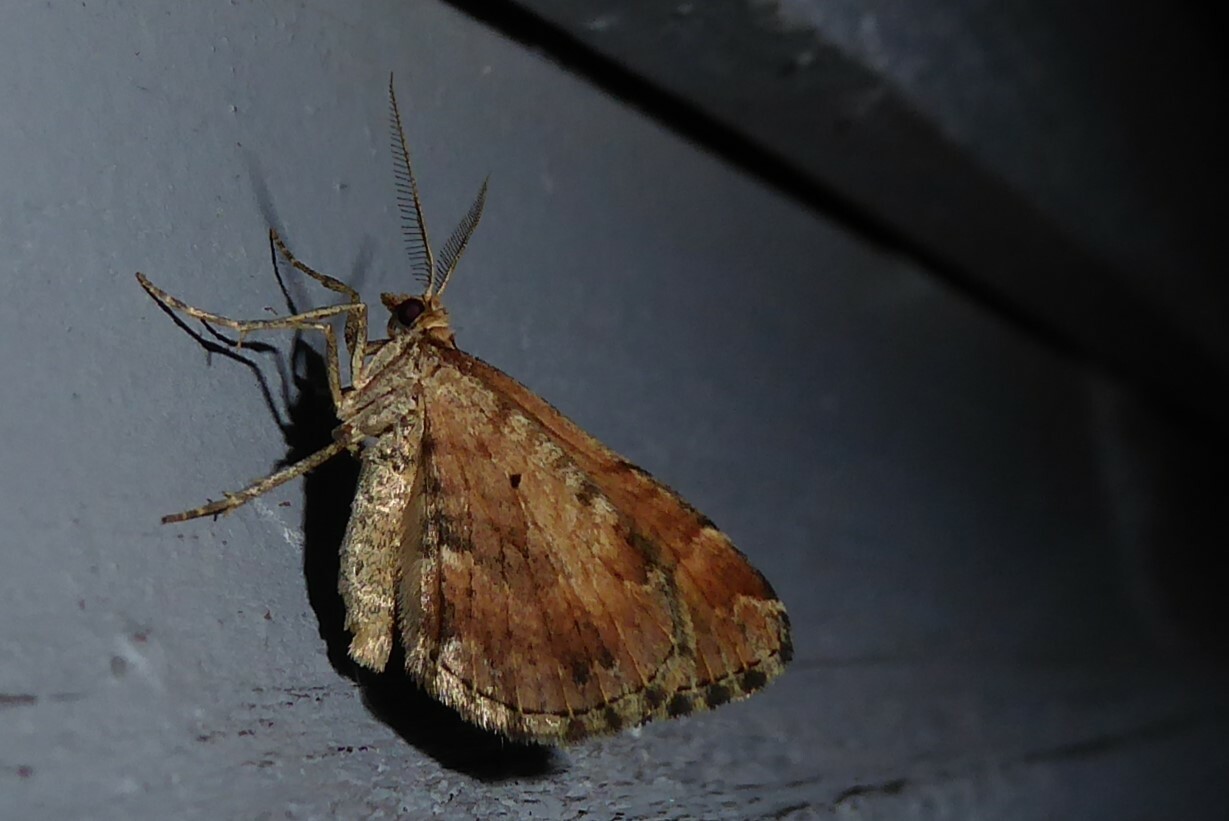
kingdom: Animalia
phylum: Arthropoda
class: Insecta
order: Lepidoptera
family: Geometridae
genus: Asaphodes
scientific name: Asaphodes aegrota
